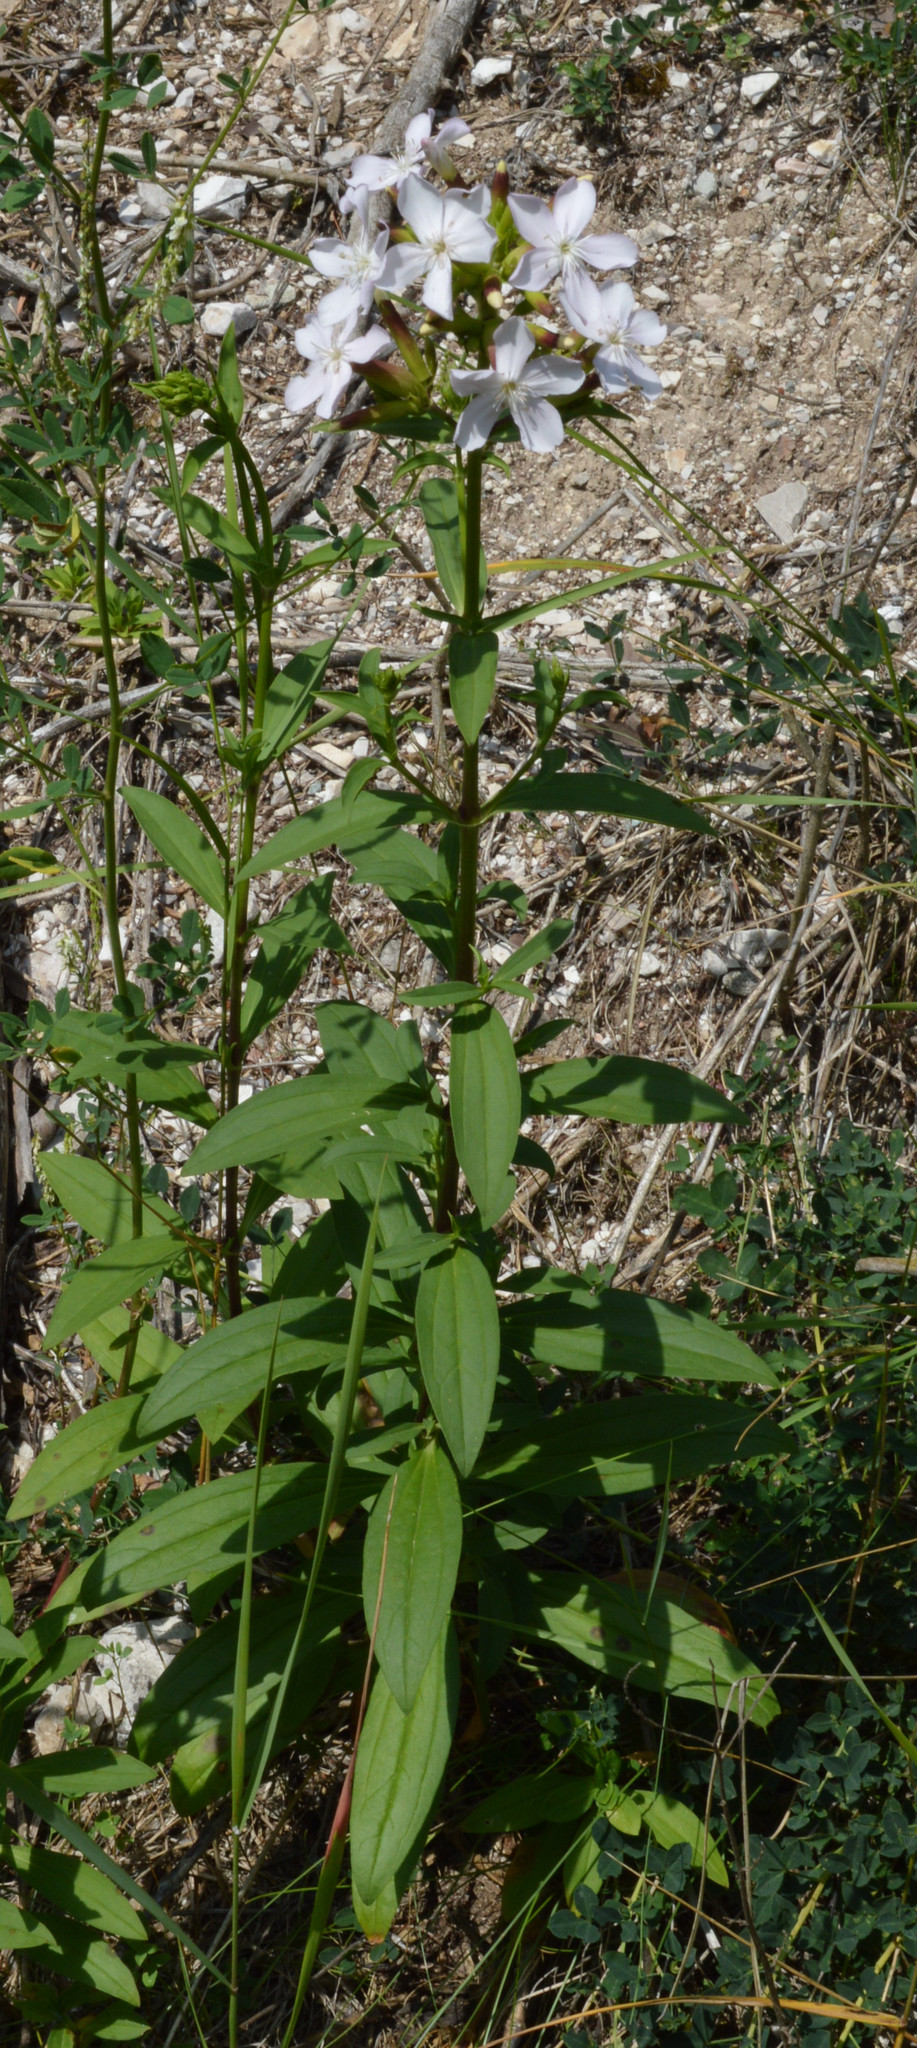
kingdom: Plantae
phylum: Tracheophyta
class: Magnoliopsida
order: Caryophyllales
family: Caryophyllaceae
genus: Saponaria
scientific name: Saponaria officinalis
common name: Soapwort
